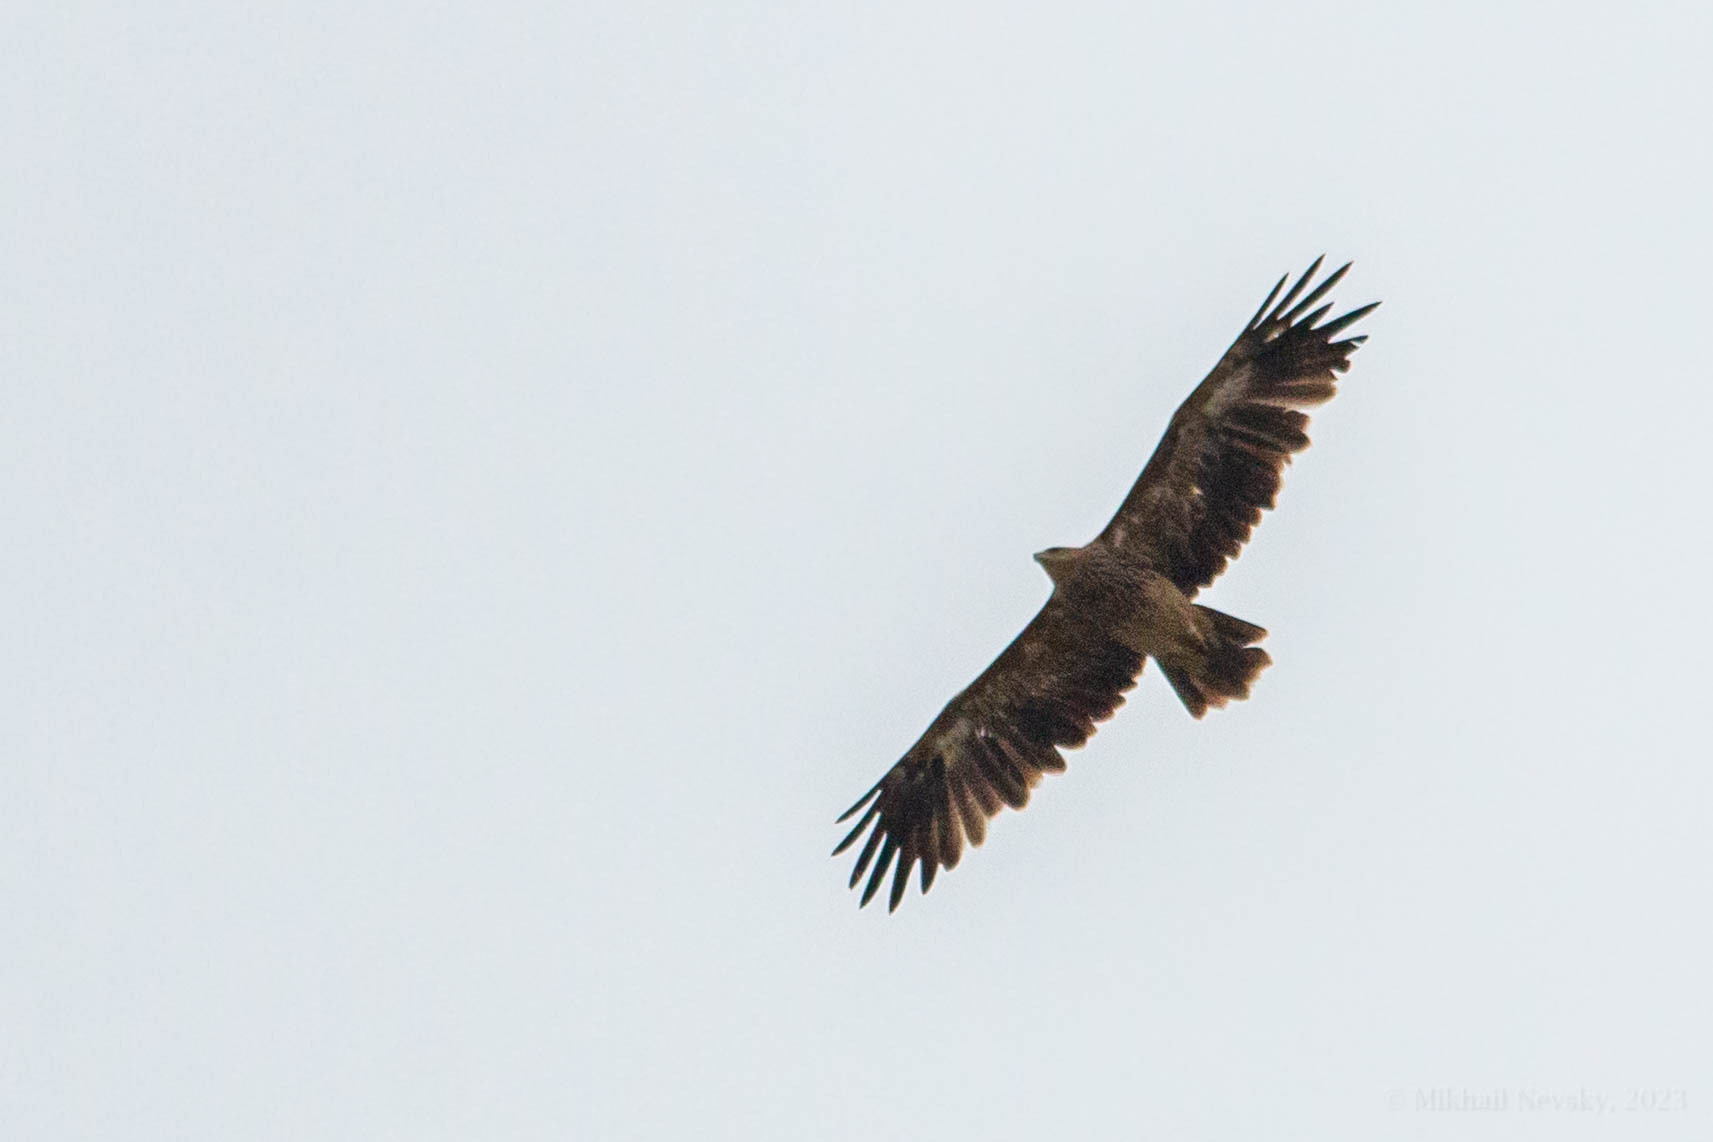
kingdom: Animalia
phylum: Chordata
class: Aves
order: Accipitriformes
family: Accipitridae
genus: Aquila
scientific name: Aquila heliaca
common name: Eastern imperial eagle
